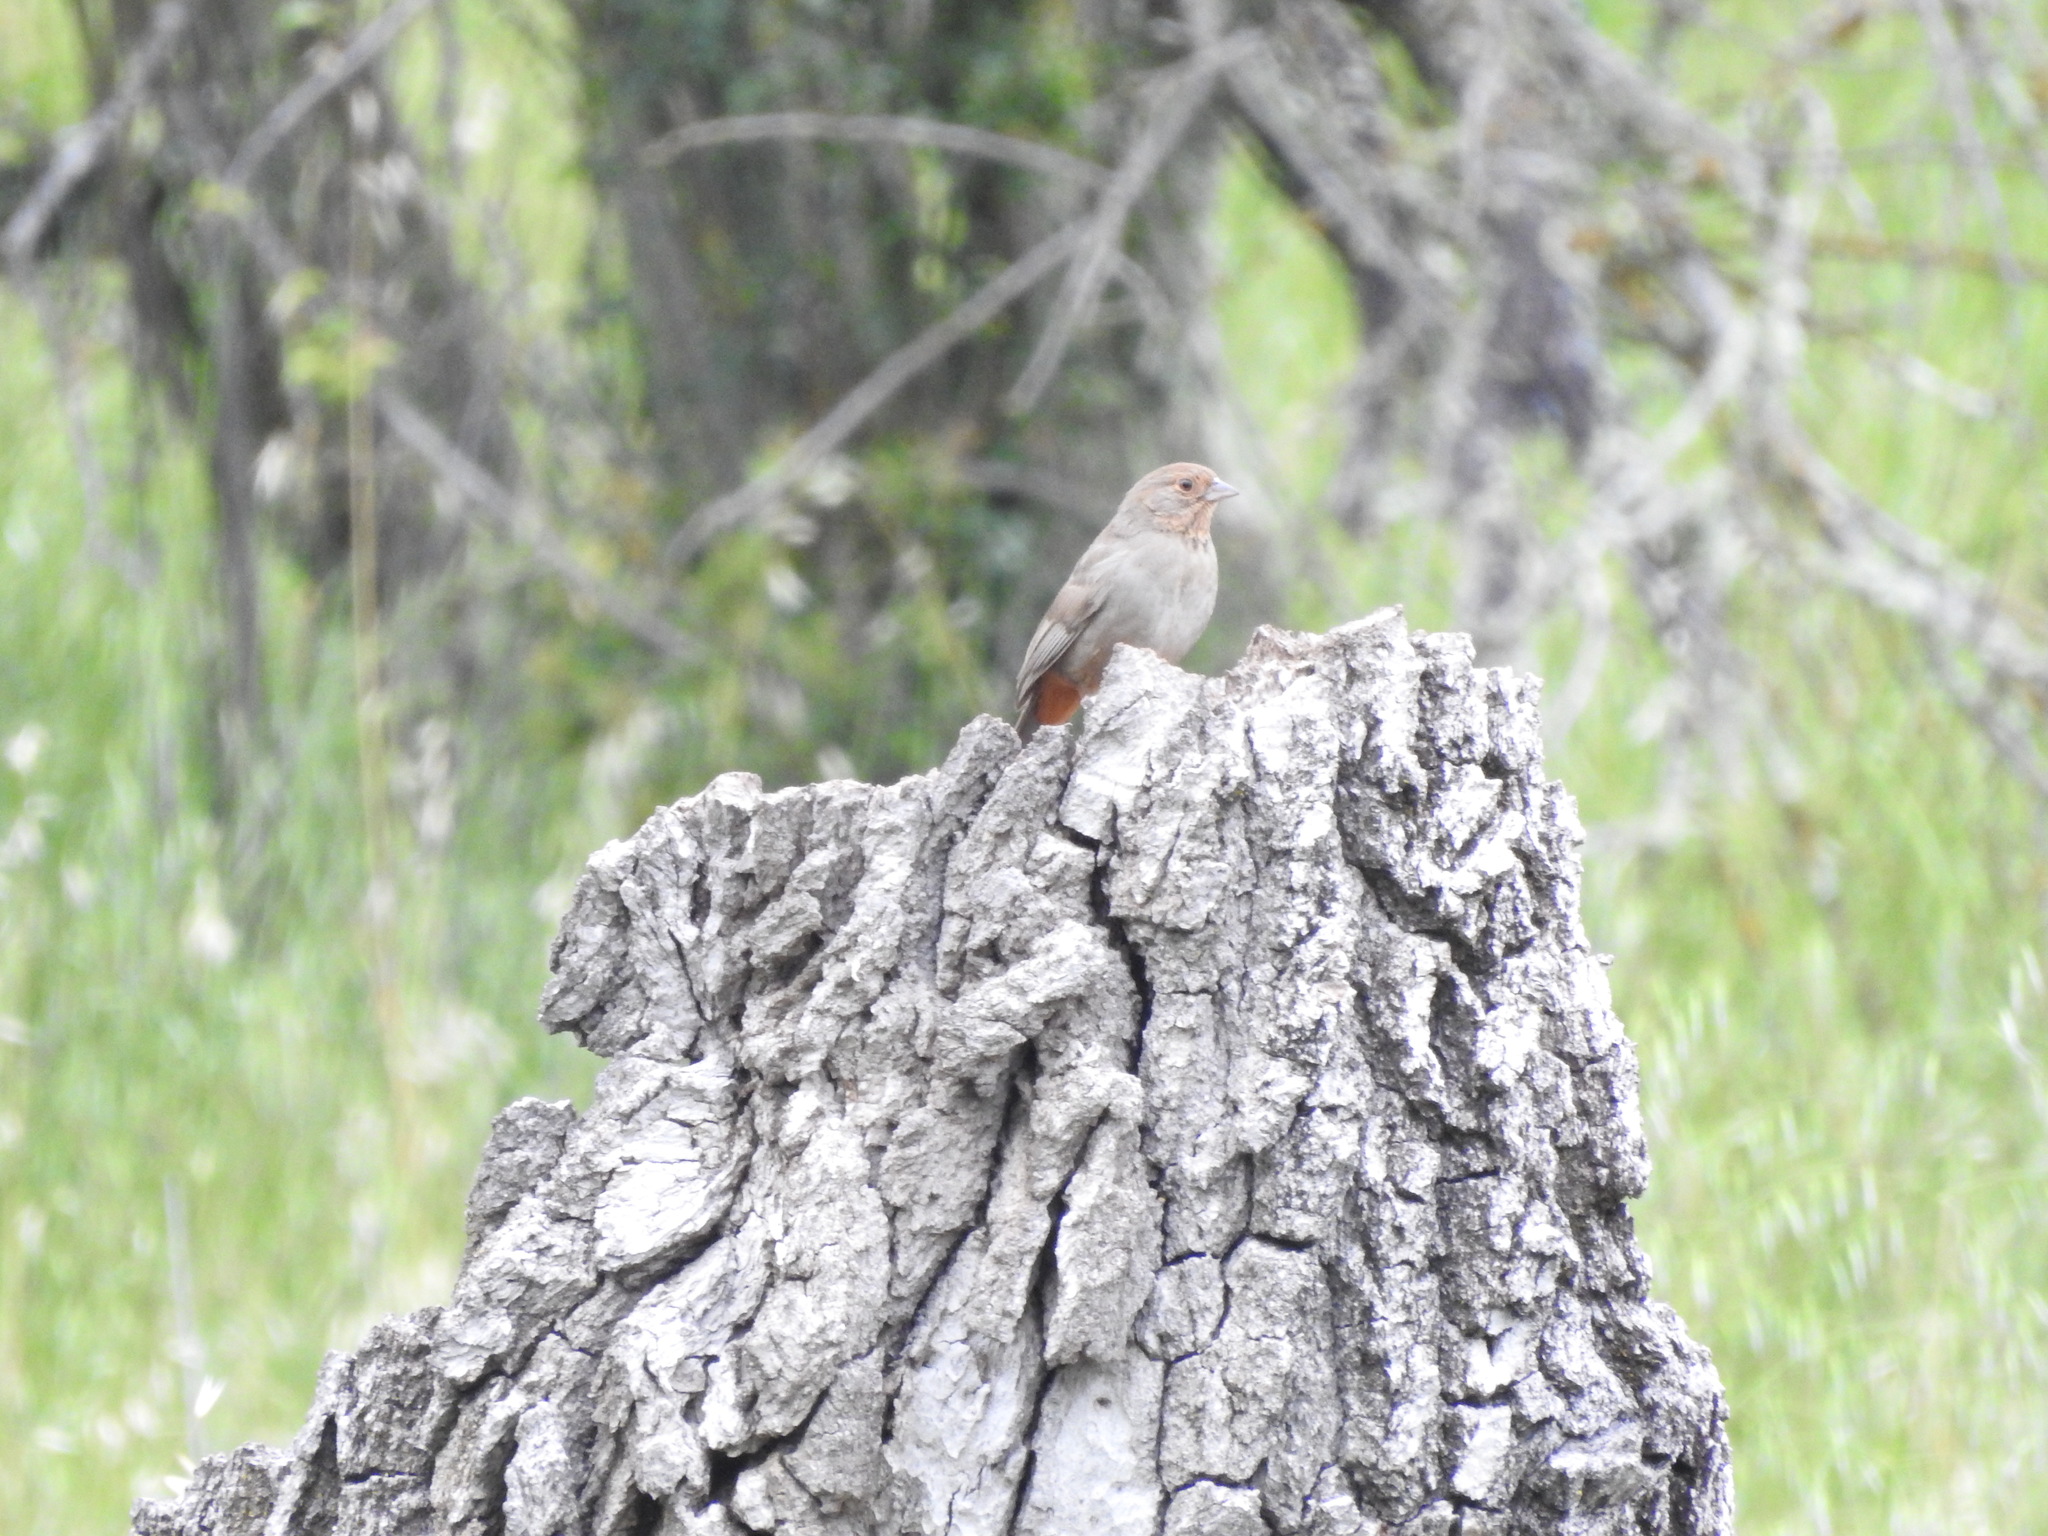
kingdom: Animalia
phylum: Chordata
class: Aves
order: Passeriformes
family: Passerellidae
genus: Melozone
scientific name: Melozone crissalis
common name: California towhee
